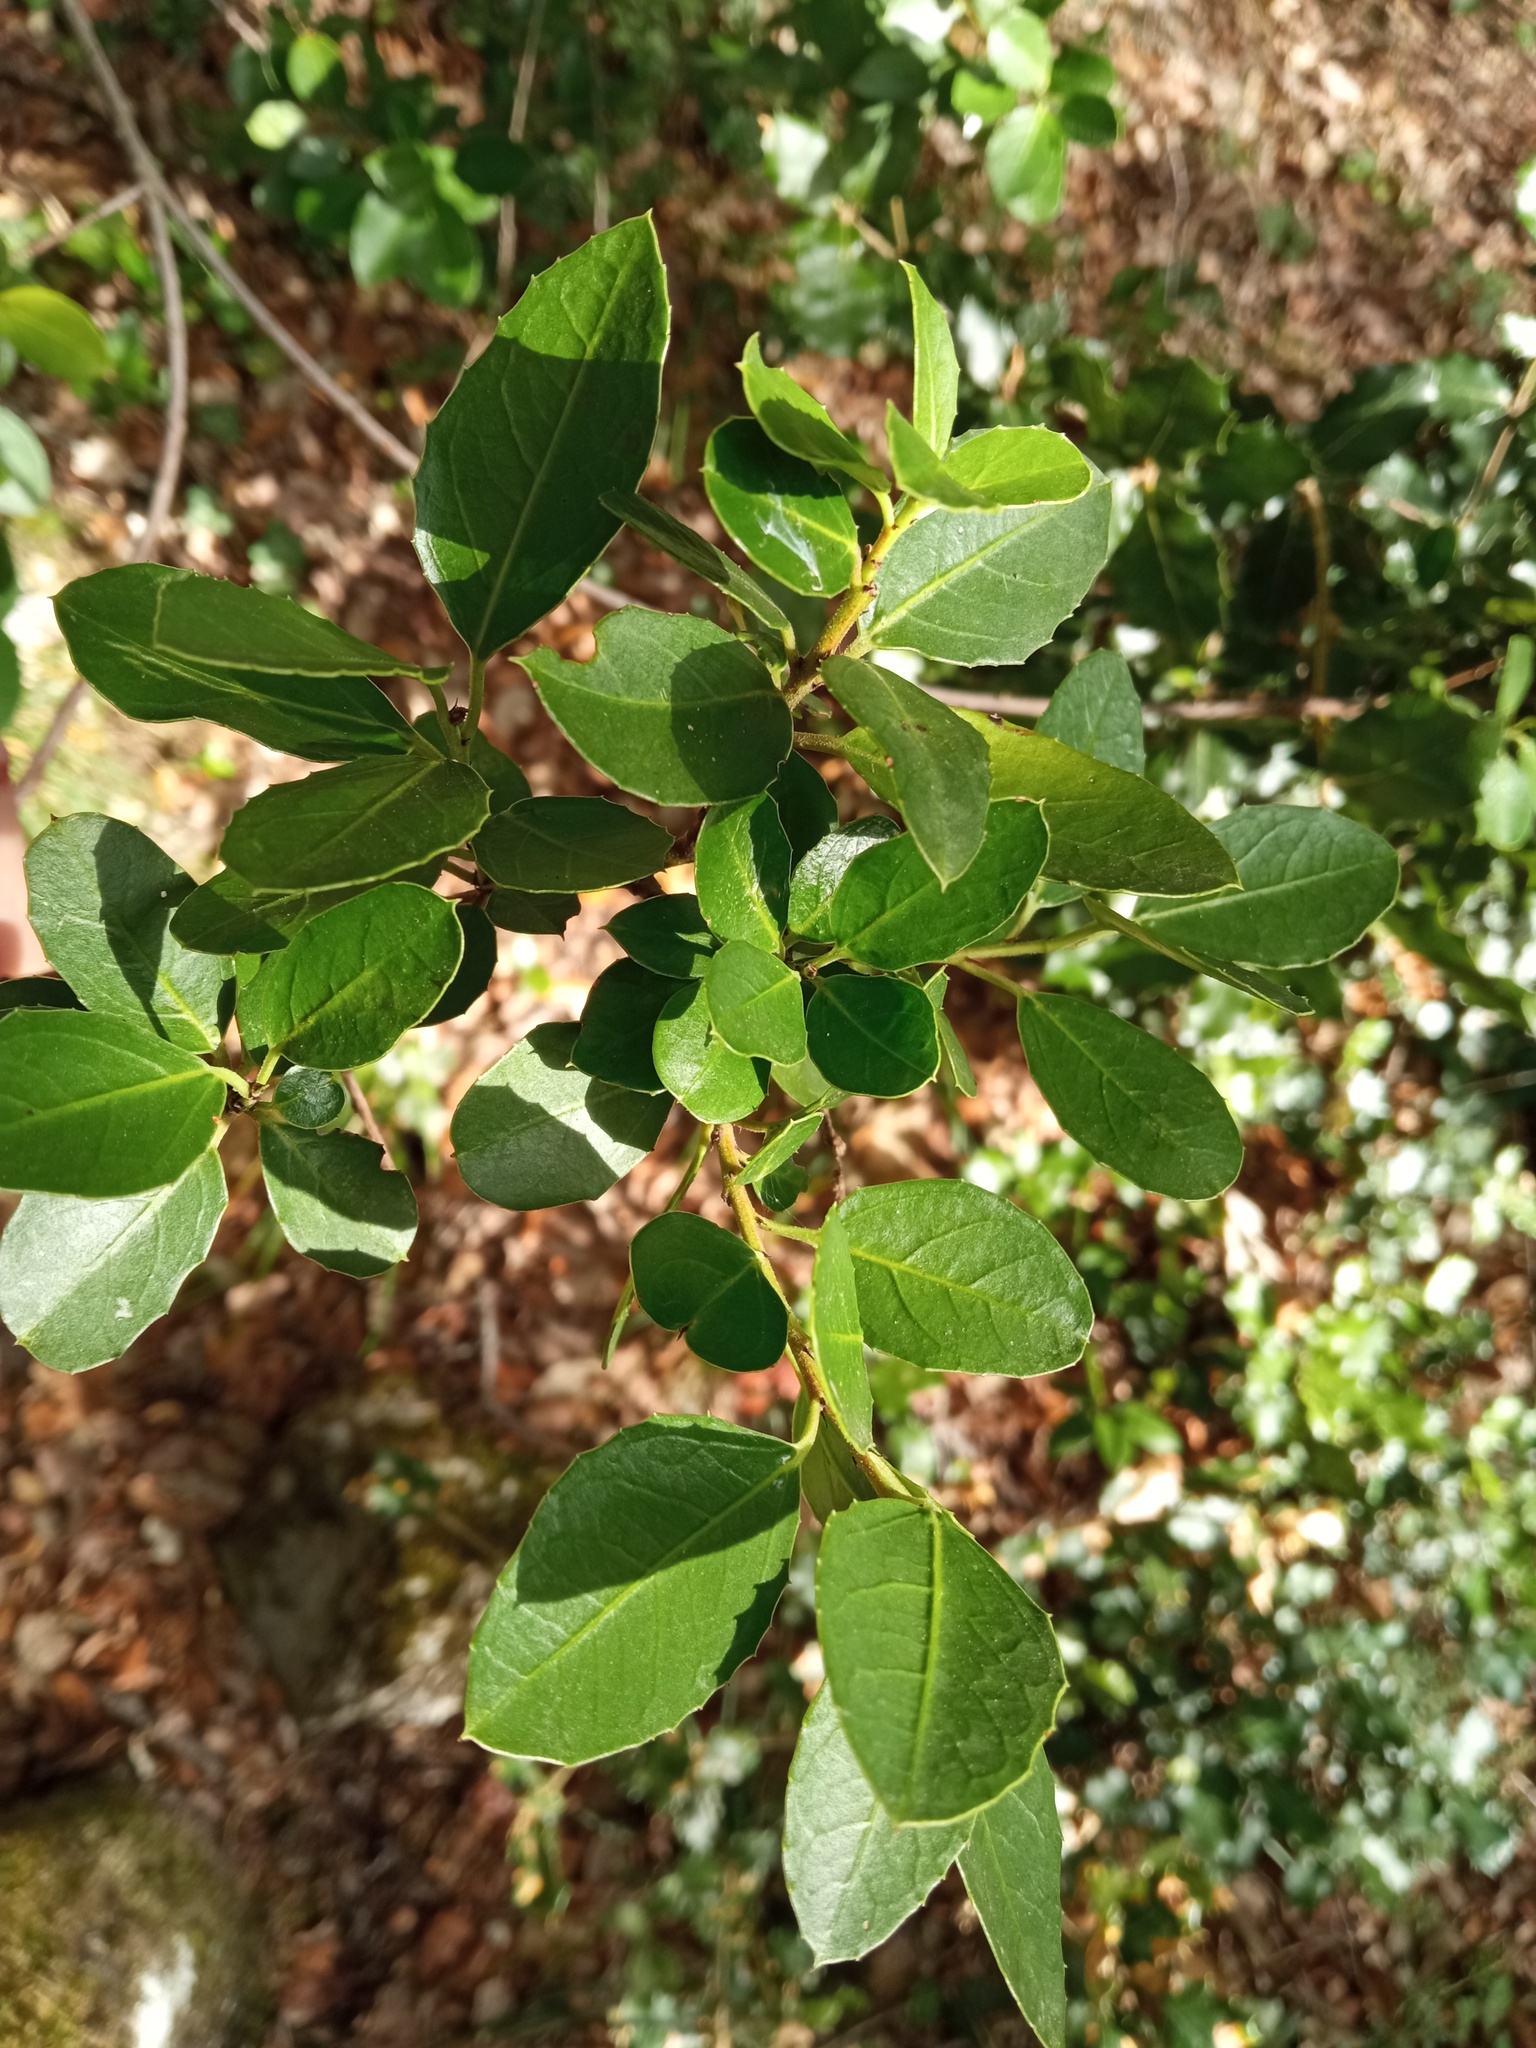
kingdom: Plantae
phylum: Tracheophyta
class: Magnoliopsida
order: Rosales
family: Rhamnaceae
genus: Rhamnus
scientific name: Rhamnus alaternus
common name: Mediterranean buckthorn
